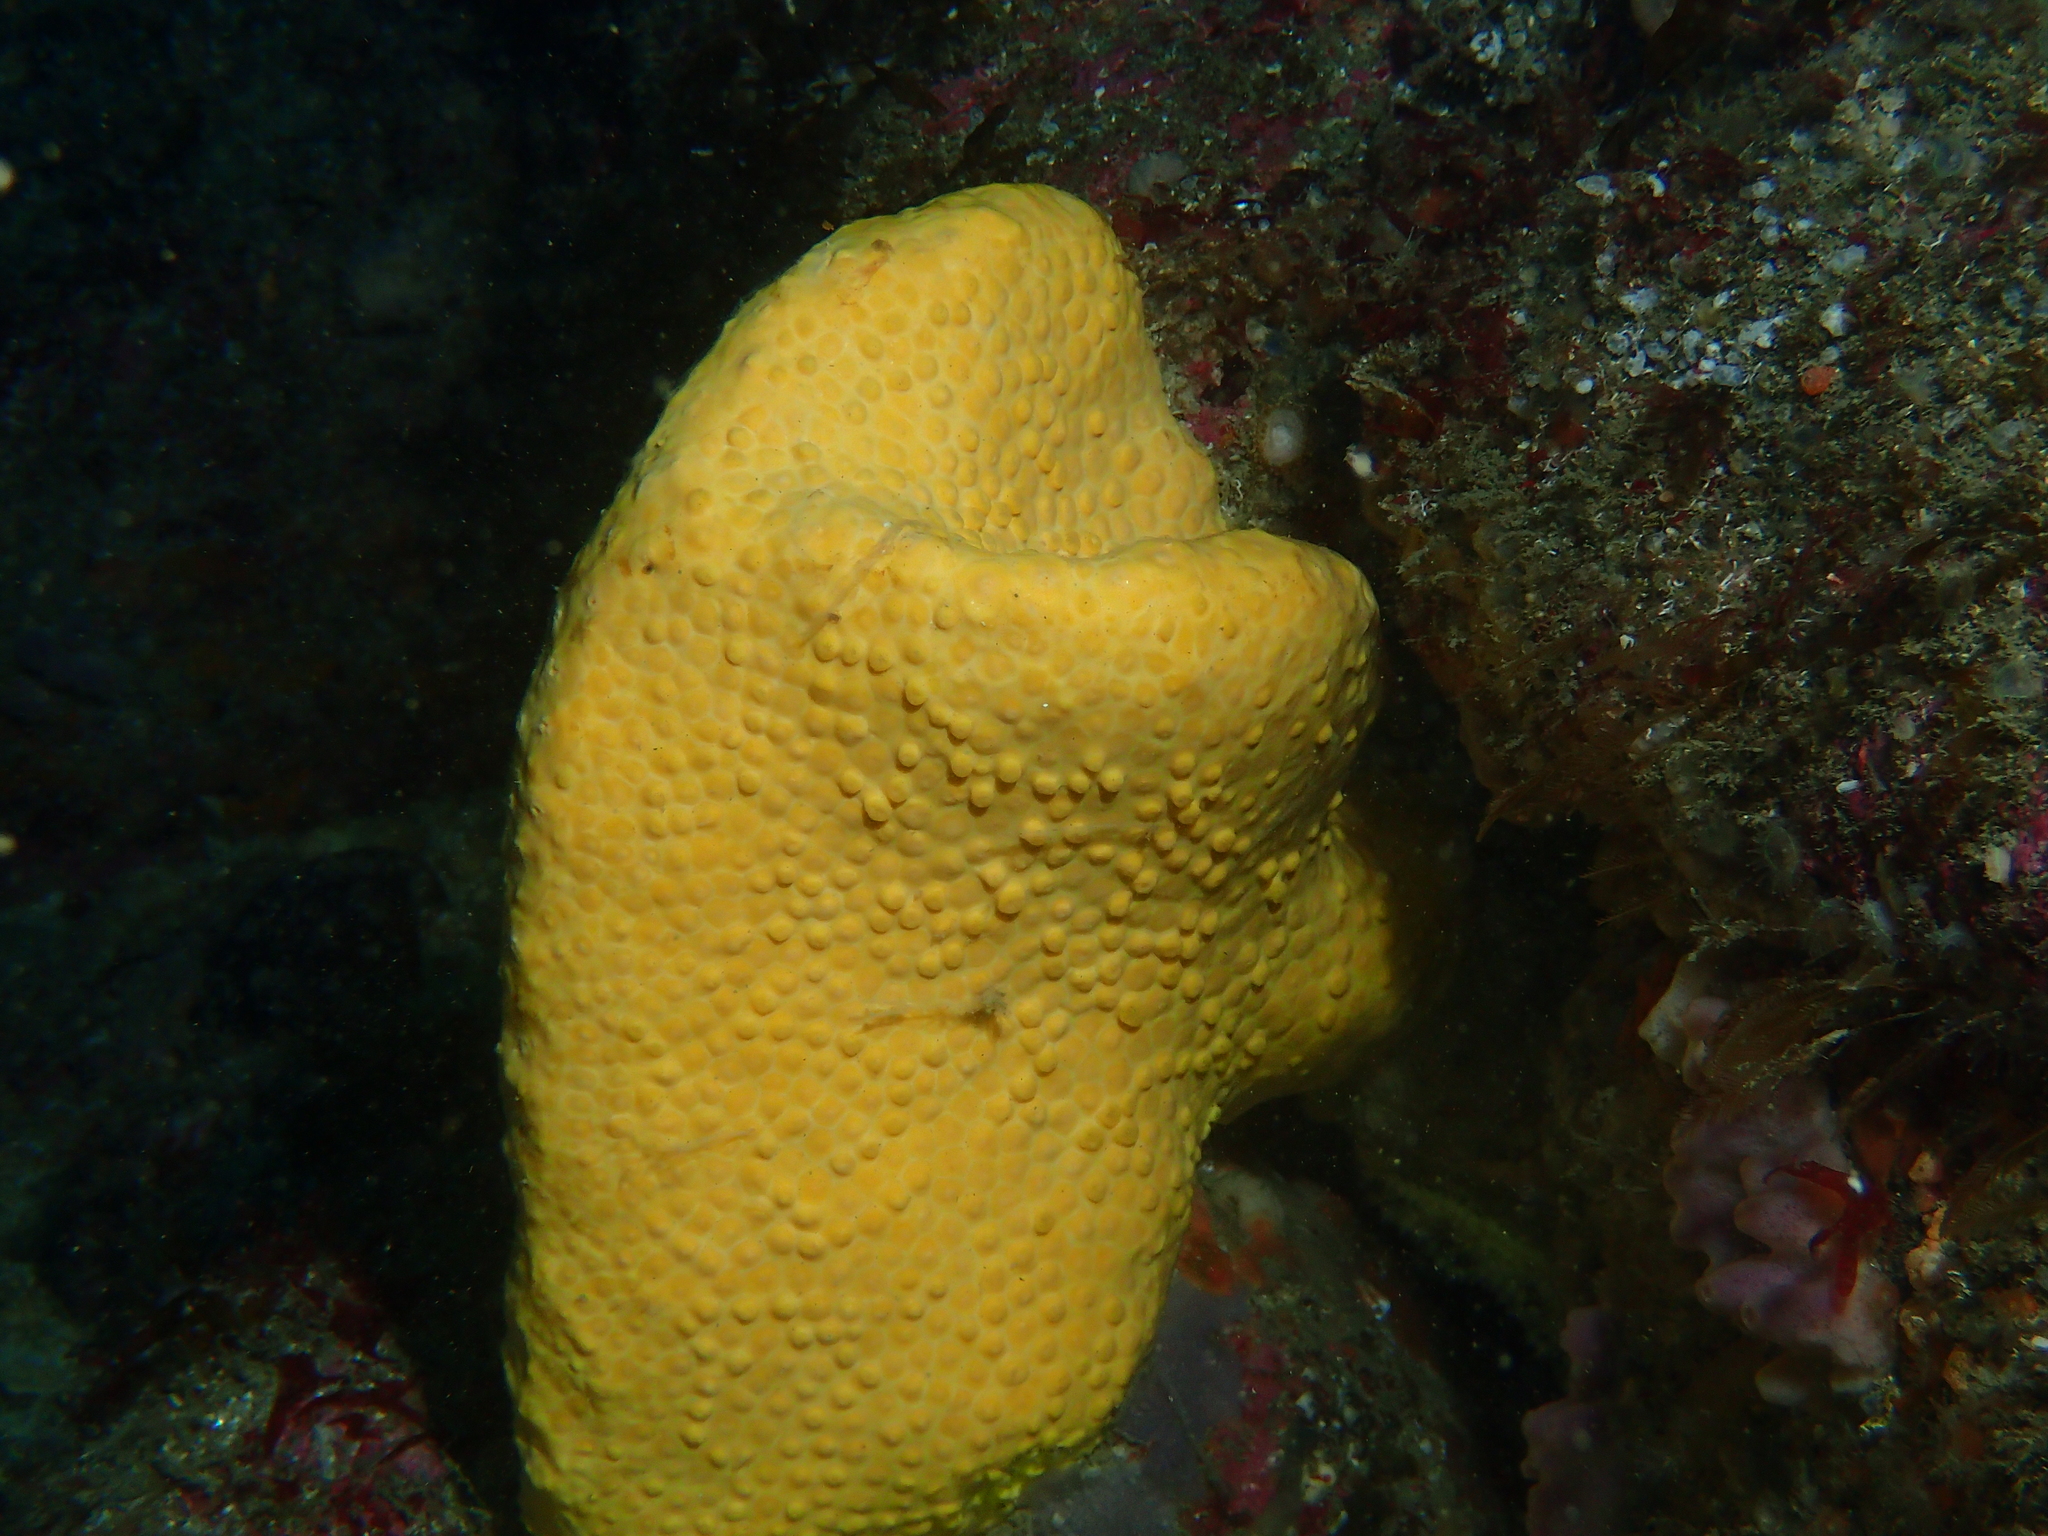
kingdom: Animalia
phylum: Porifera
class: Demospongiae
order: Clionaida
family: Clionaidae
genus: Cliona
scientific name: Cliona celata
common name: Boring sponge
